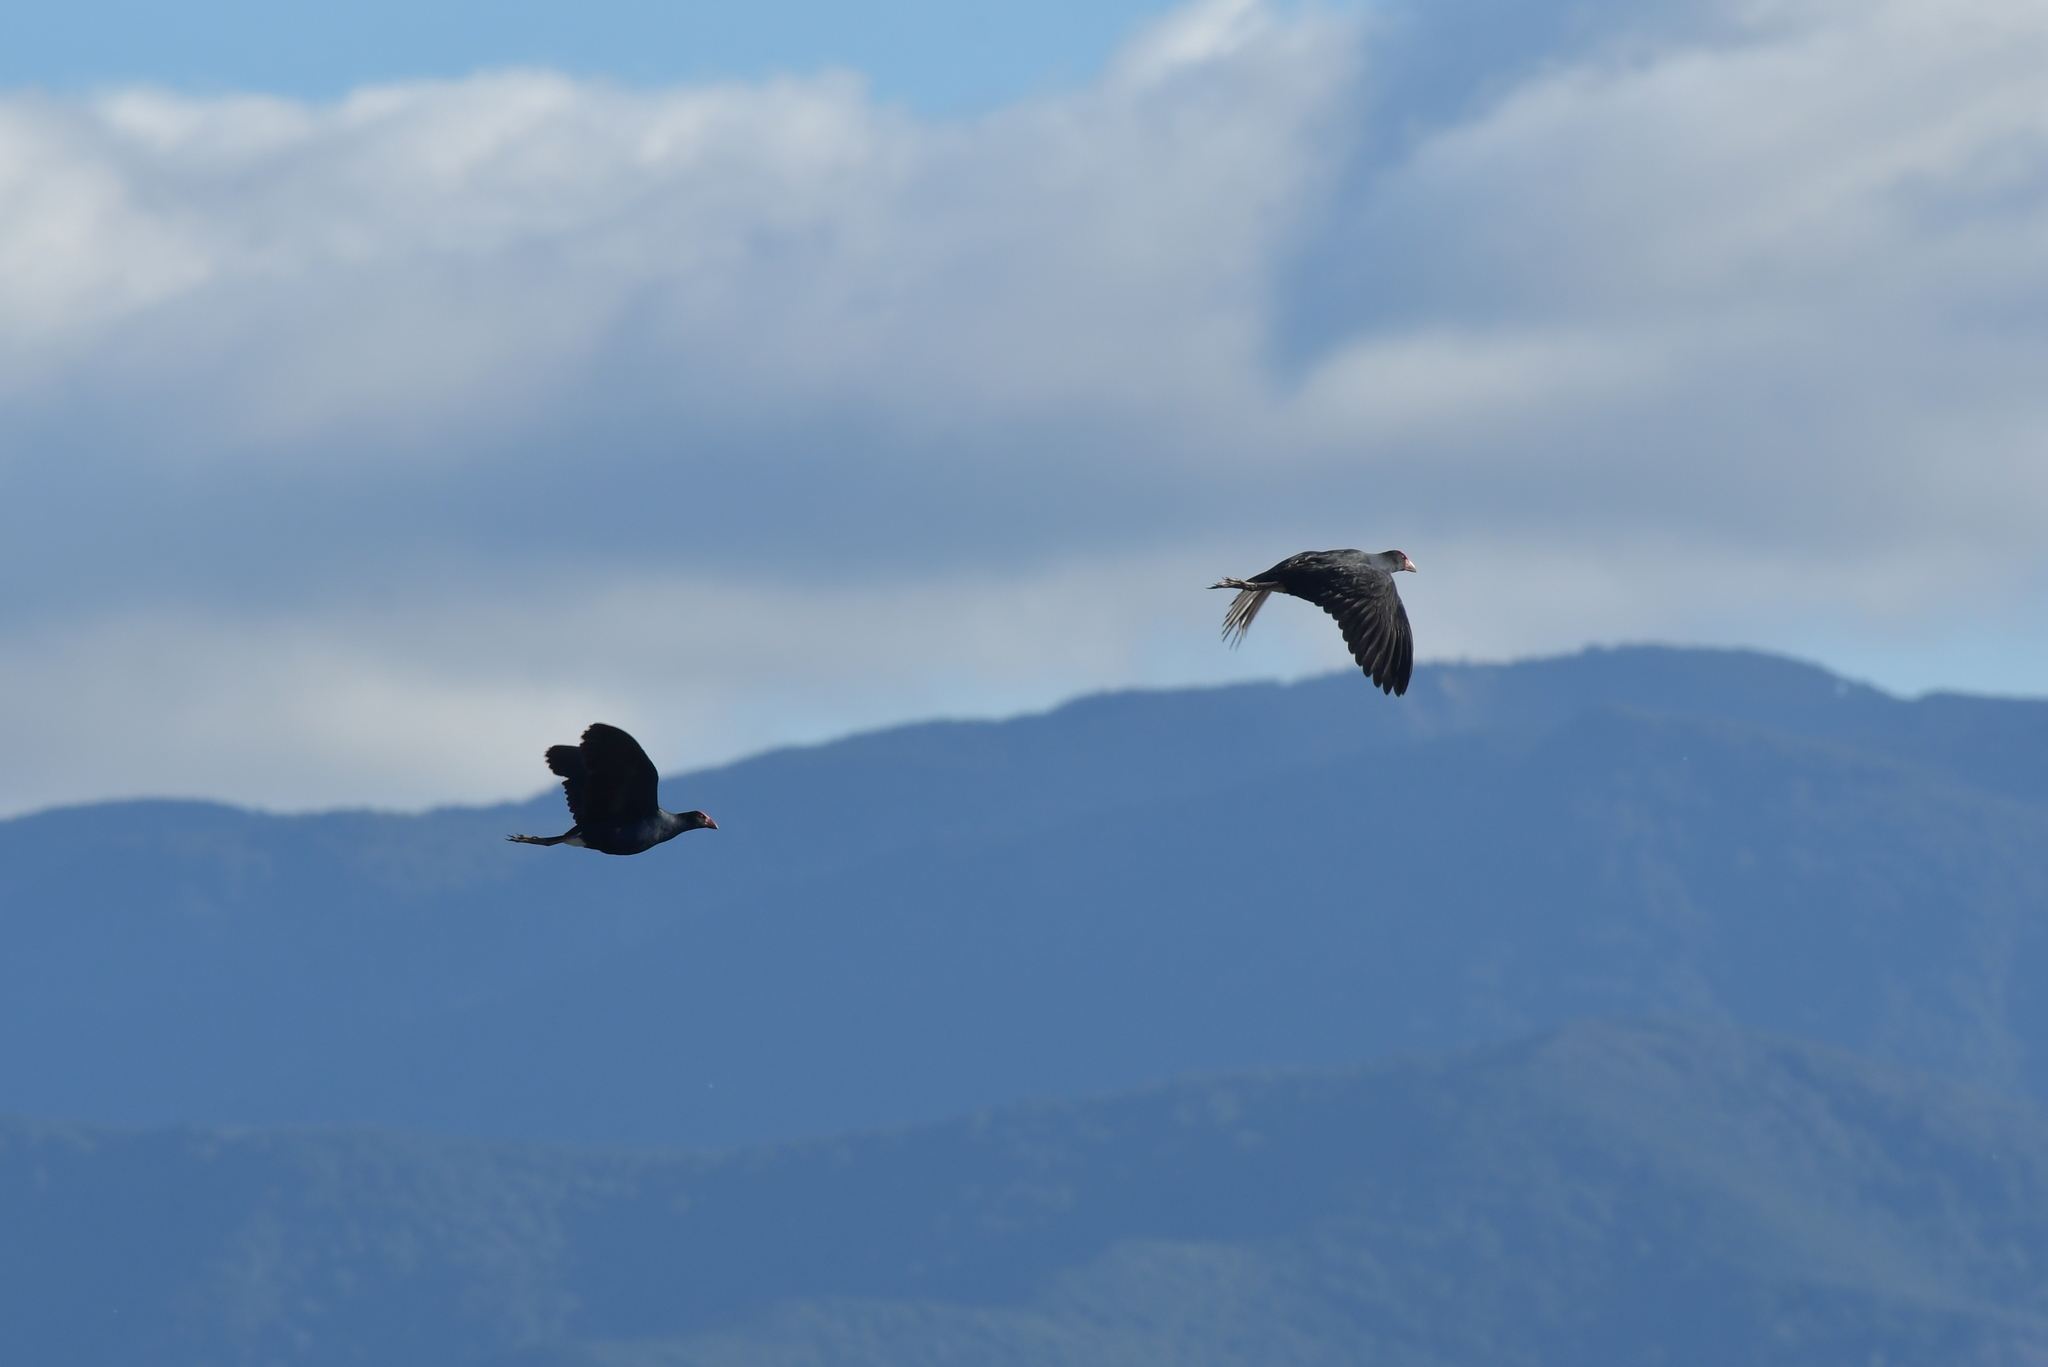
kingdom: Animalia
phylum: Chordata
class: Aves
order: Gruiformes
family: Rallidae
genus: Porphyrio
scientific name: Porphyrio melanotus
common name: Australasian swamphen
